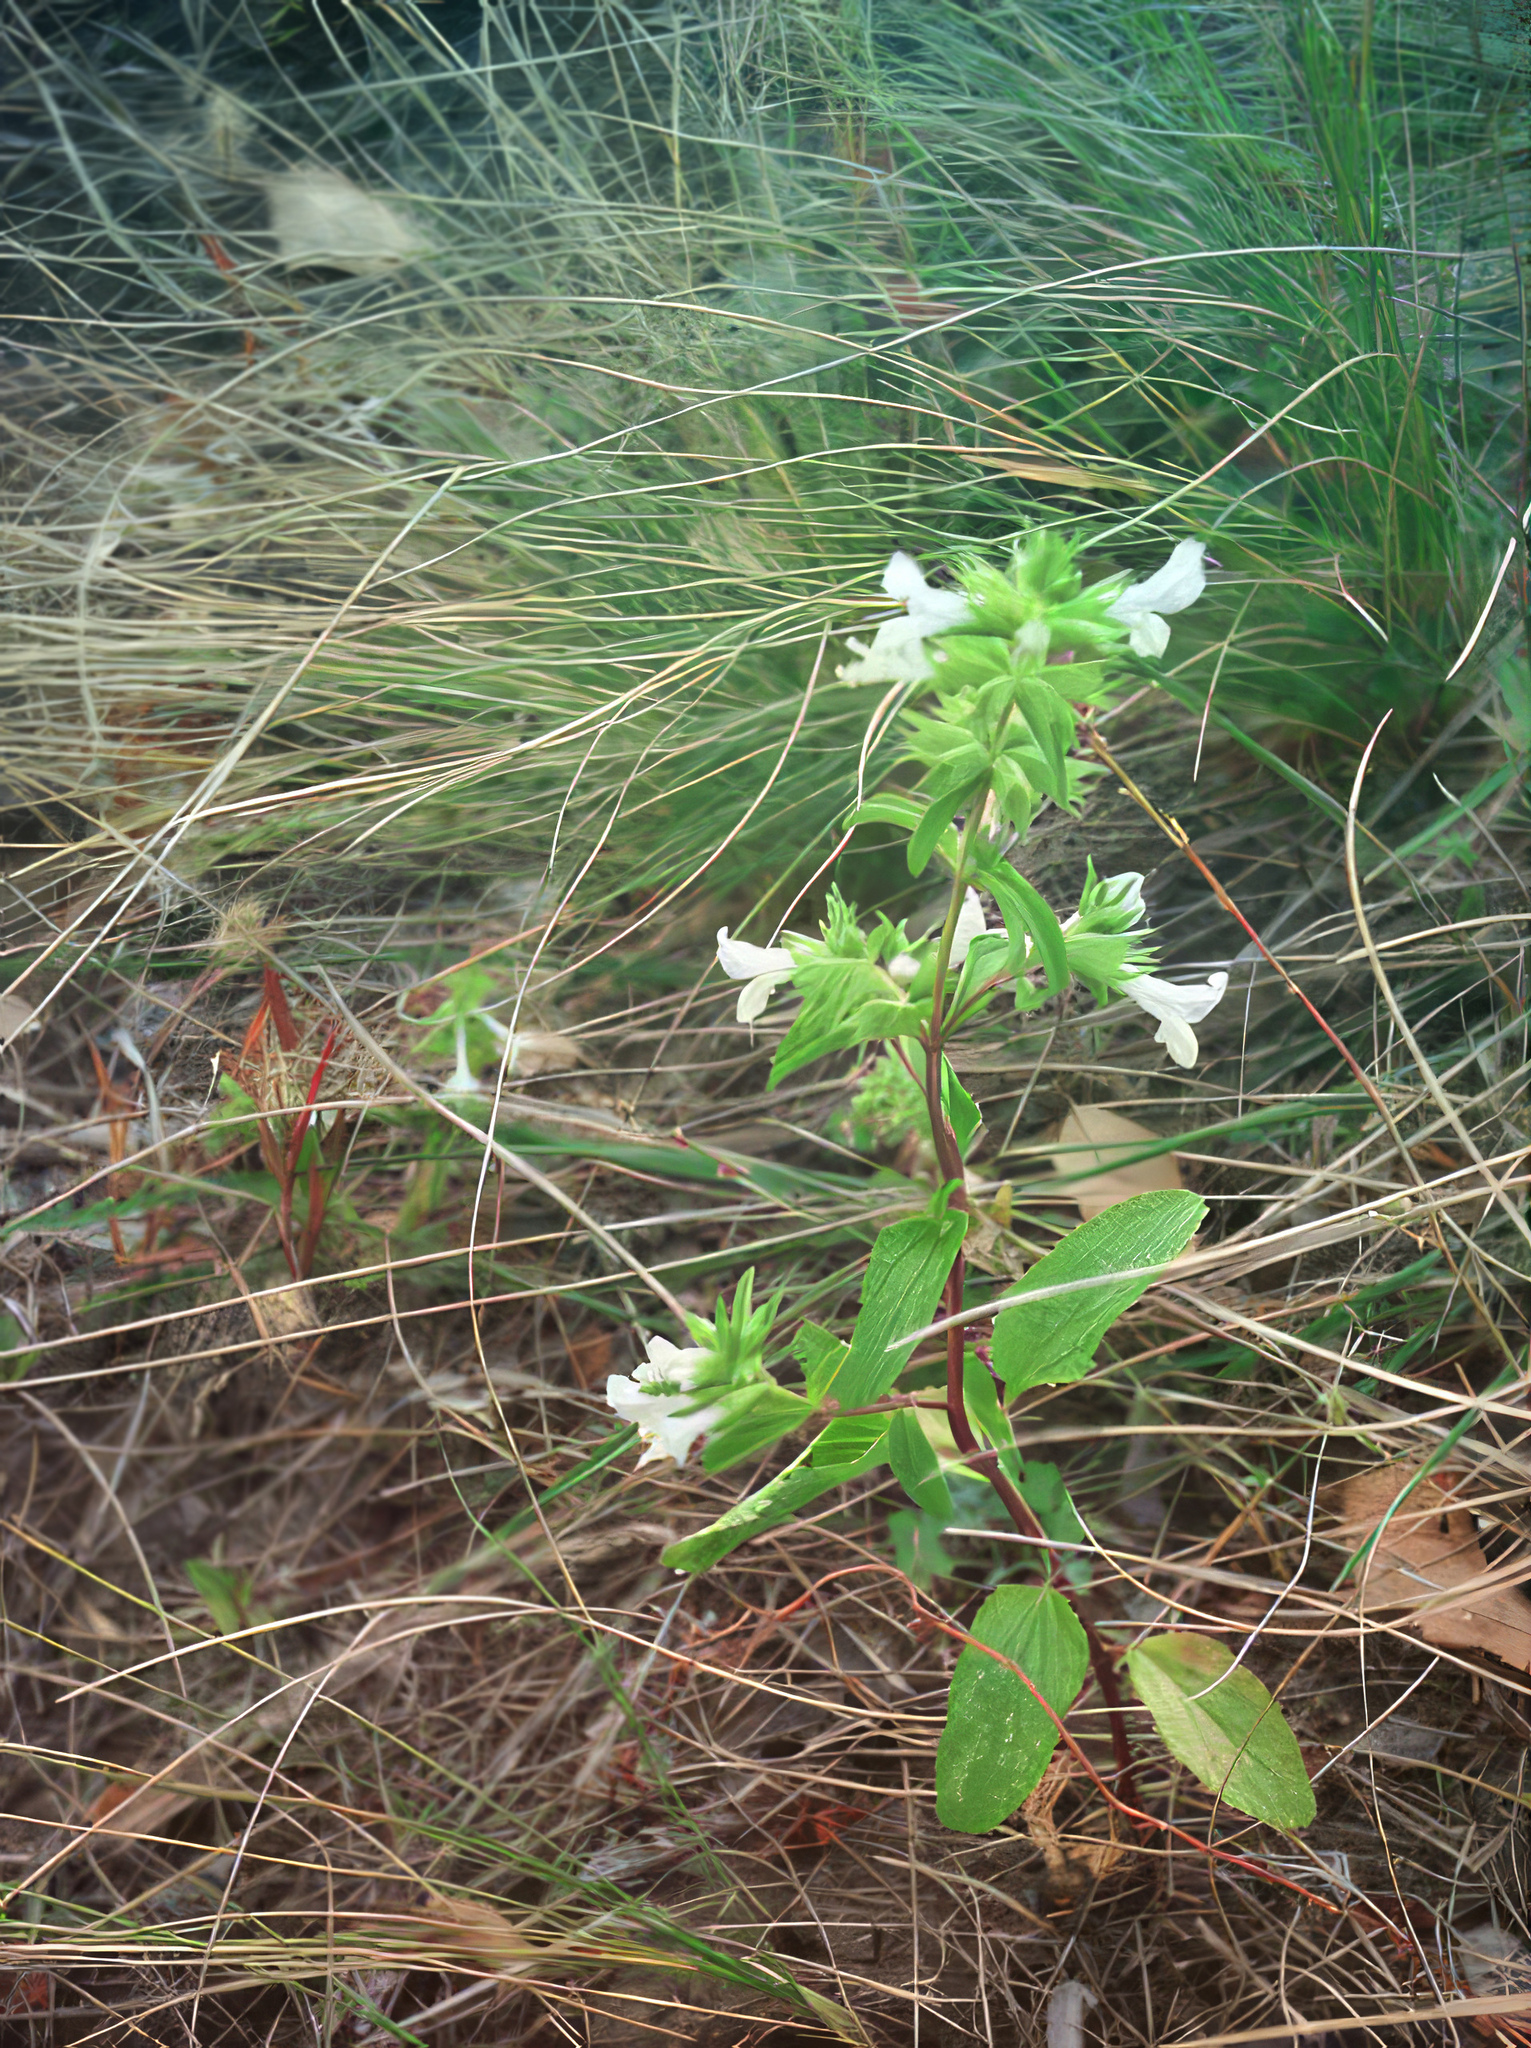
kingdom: Plantae
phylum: Tracheophyta
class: Magnoliopsida
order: Lamiales
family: Lamiaceae
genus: Stachys
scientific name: Stachys annua
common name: Annual yellow-woundwort
